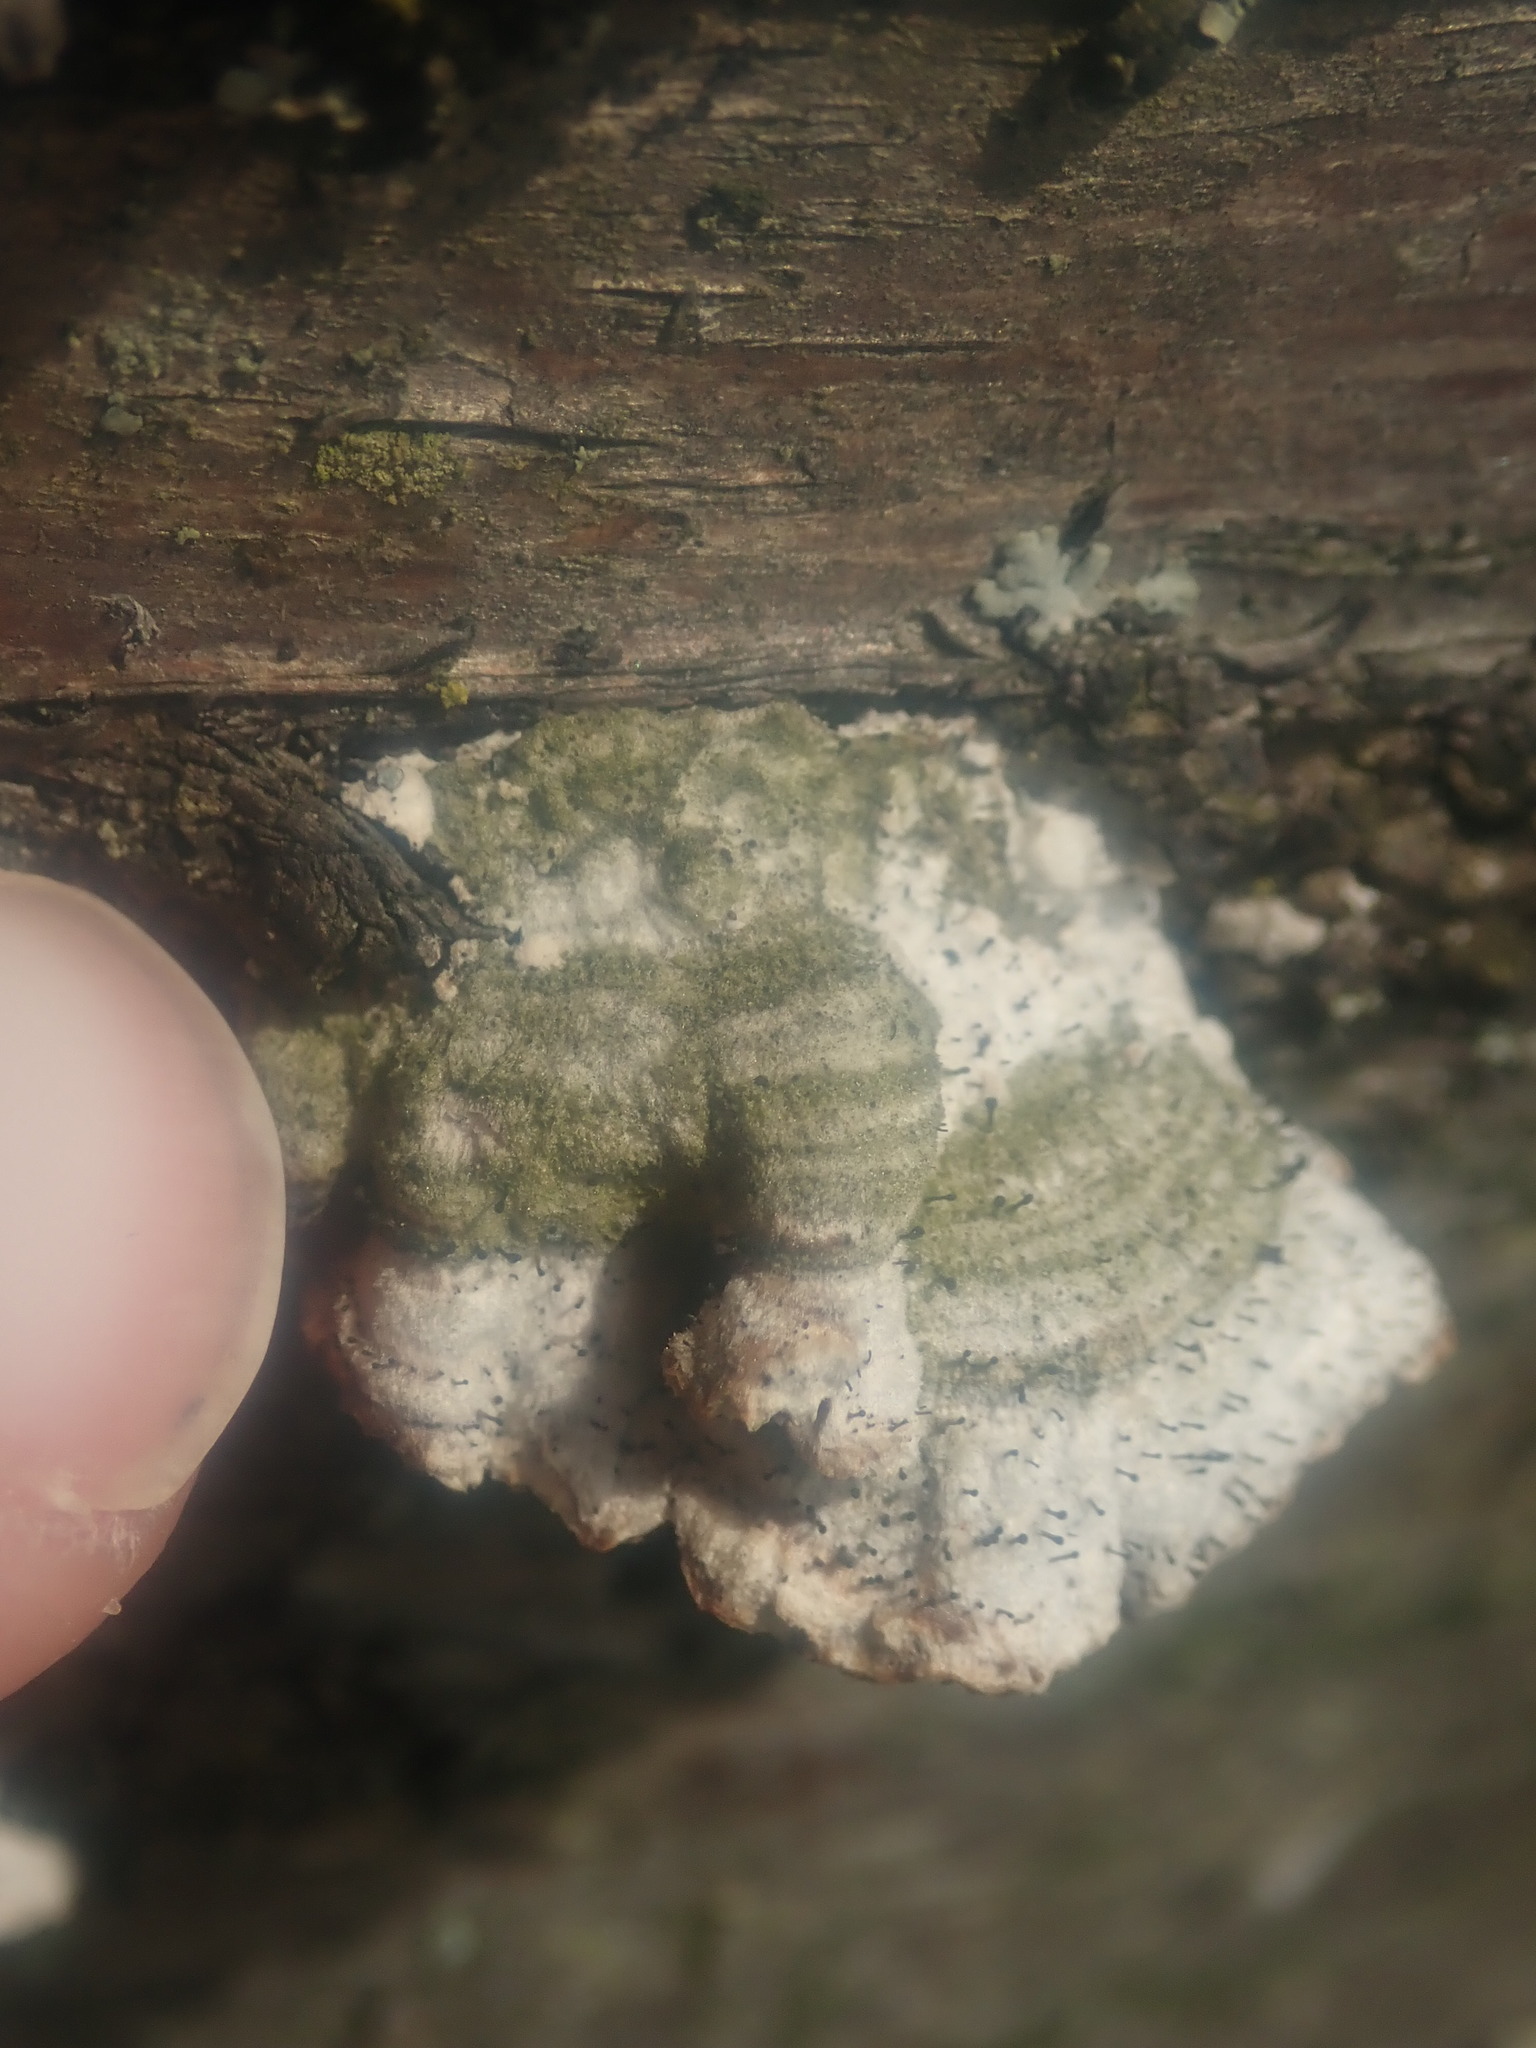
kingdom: Fungi
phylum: Ascomycota
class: Eurotiomycetes
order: Mycocaliciales
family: Mycocaliciaceae
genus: Phaeocalicium
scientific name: Phaeocalicium polyporaeum
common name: Fairy pins
